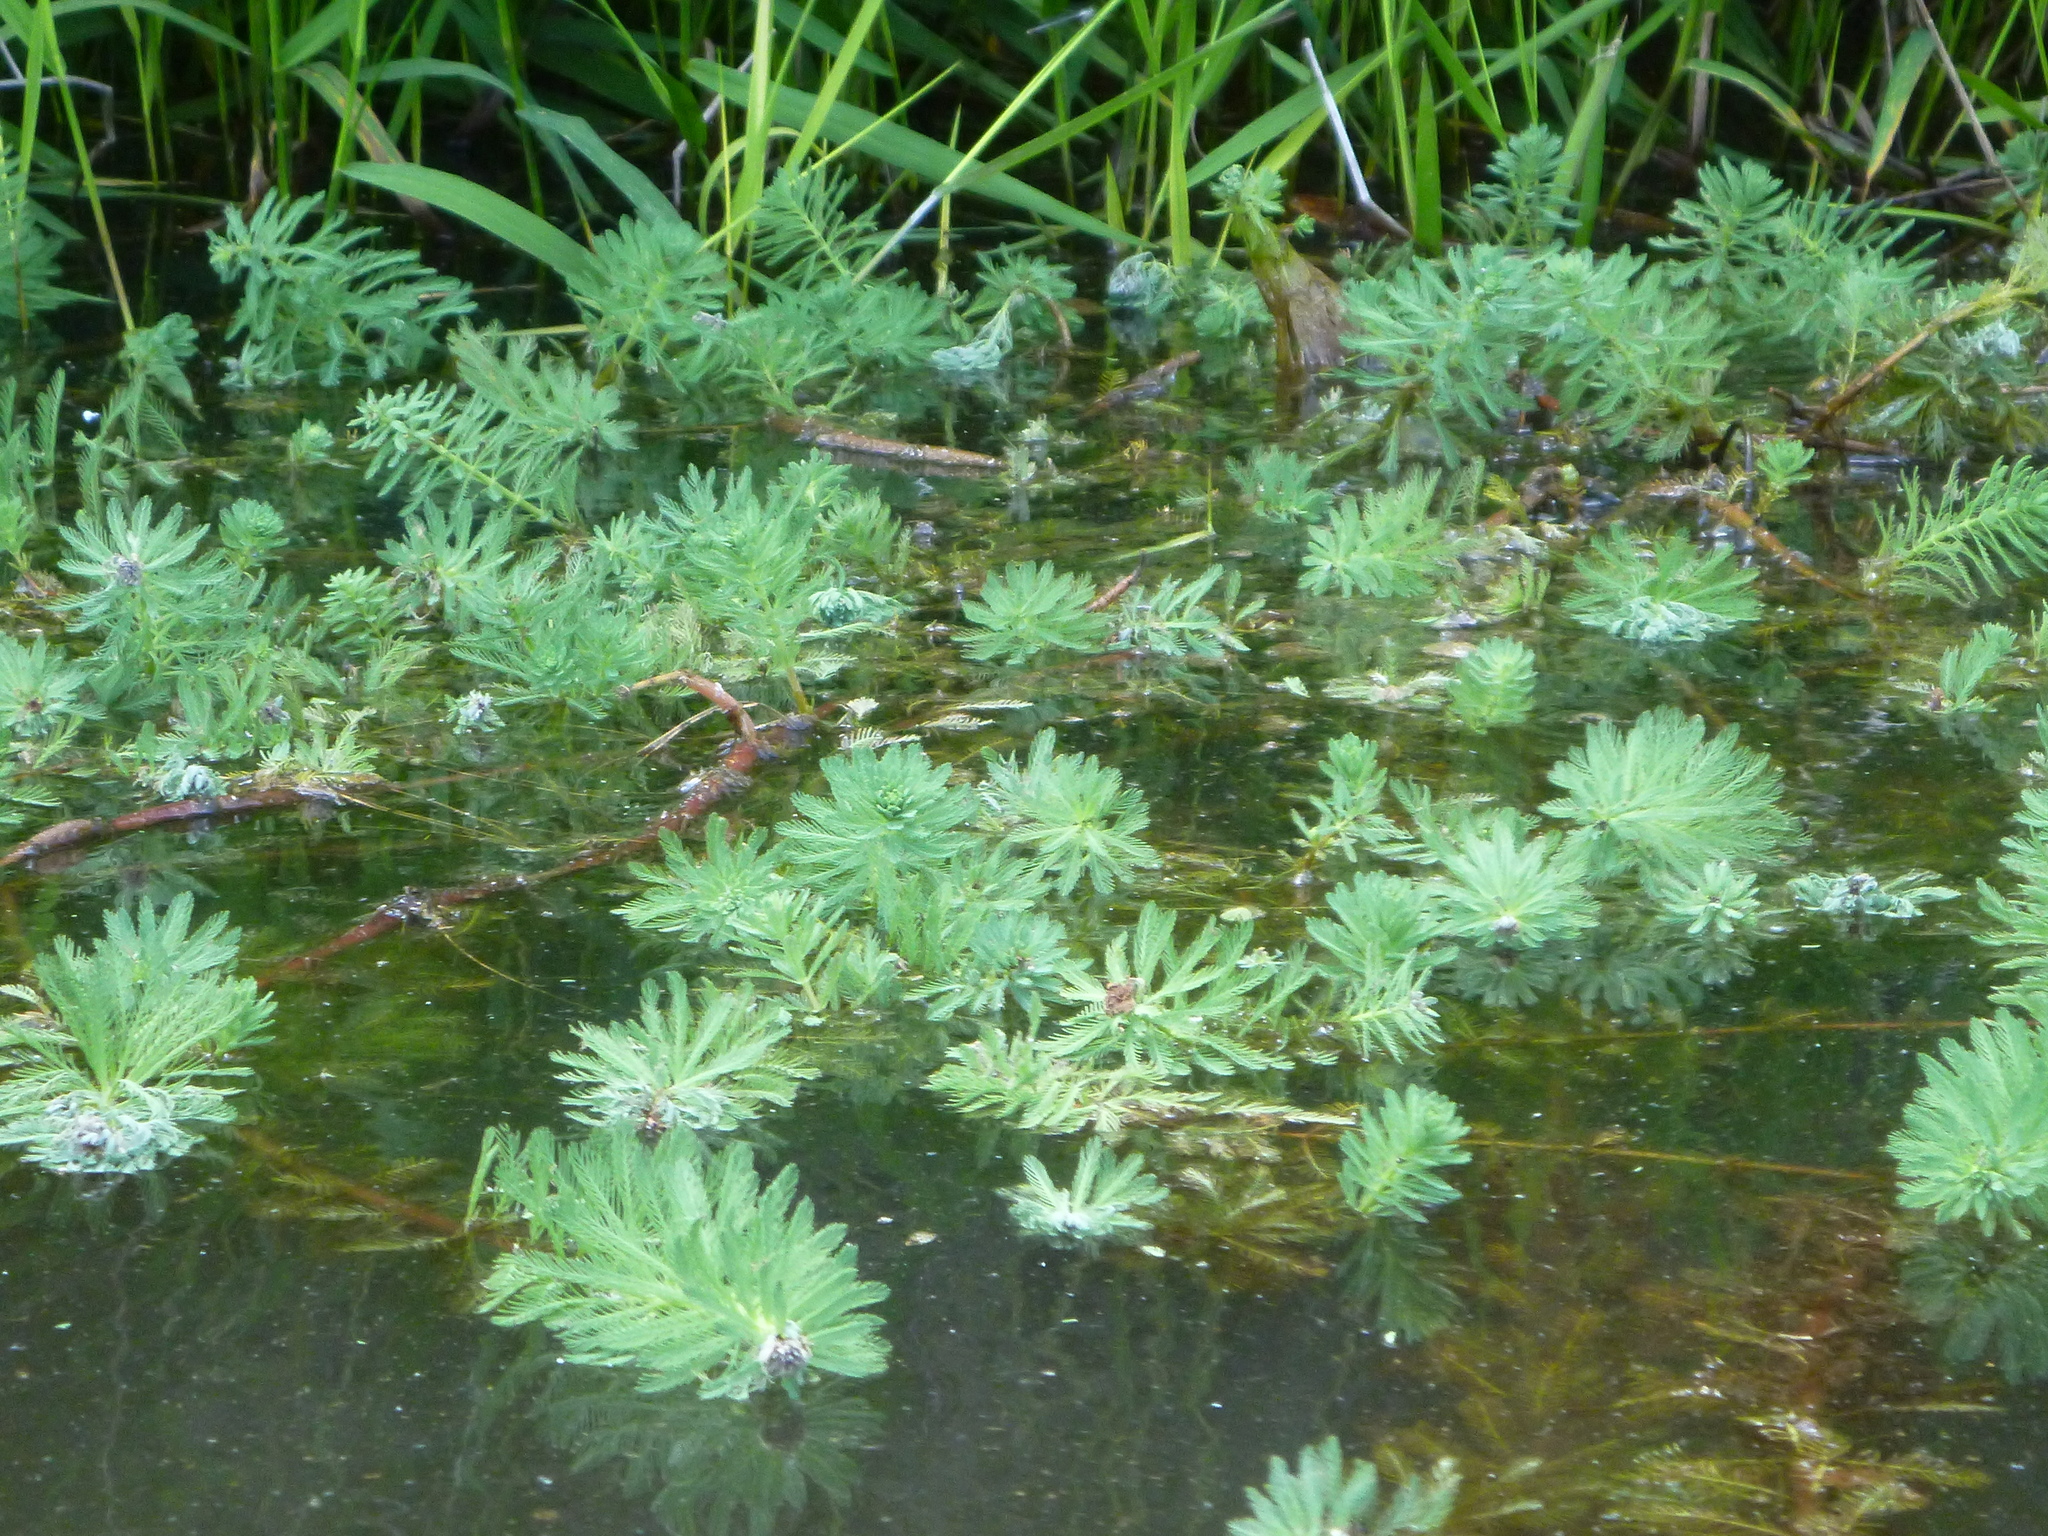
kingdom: Plantae
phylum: Tracheophyta
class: Magnoliopsida
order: Saxifragales
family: Haloragaceae
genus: Myriophyllum
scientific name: Myriophyllum aquaticum
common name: Parrot's feather
